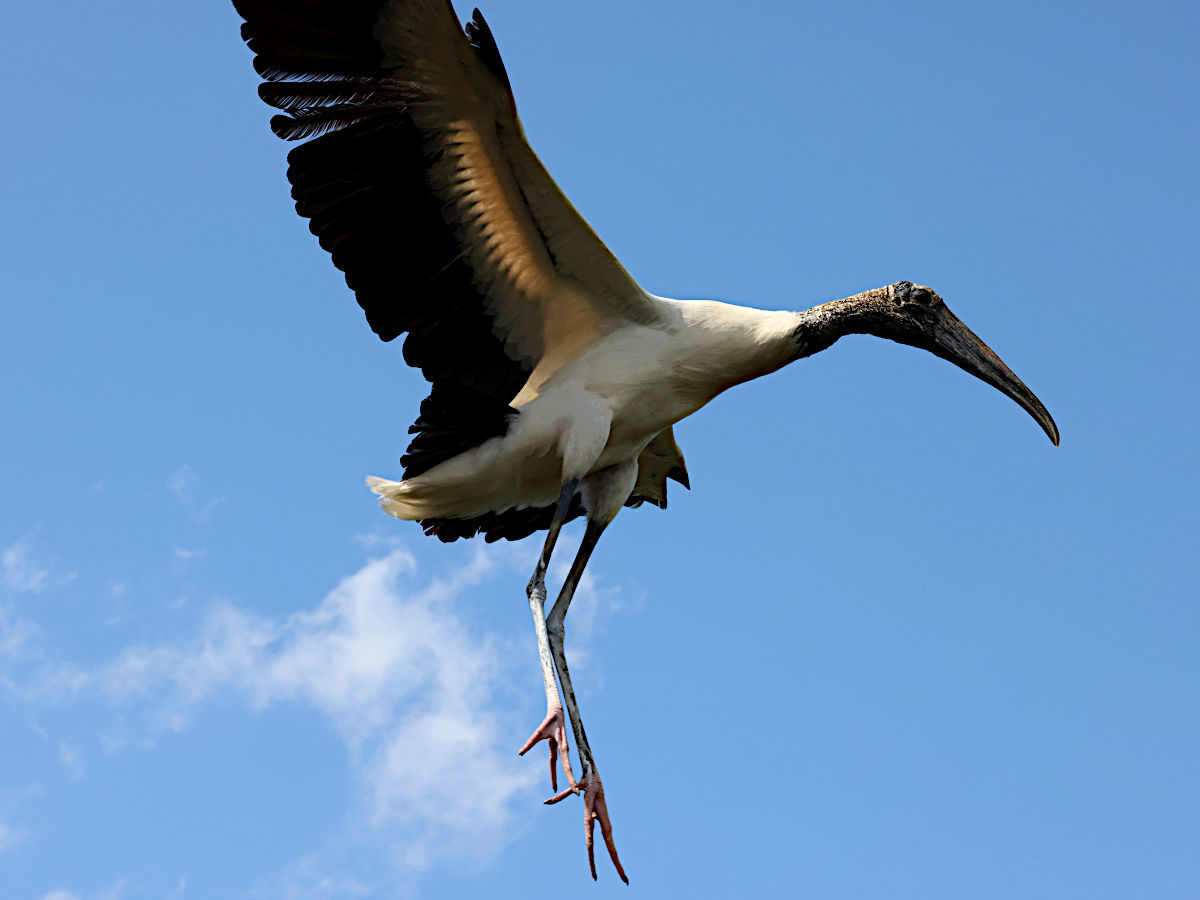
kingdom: Animalia
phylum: Chordata
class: Aves
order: Ciconiiformes
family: Ciconiidae
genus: Mycteria
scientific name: Mycteria americana
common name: Wood stork
